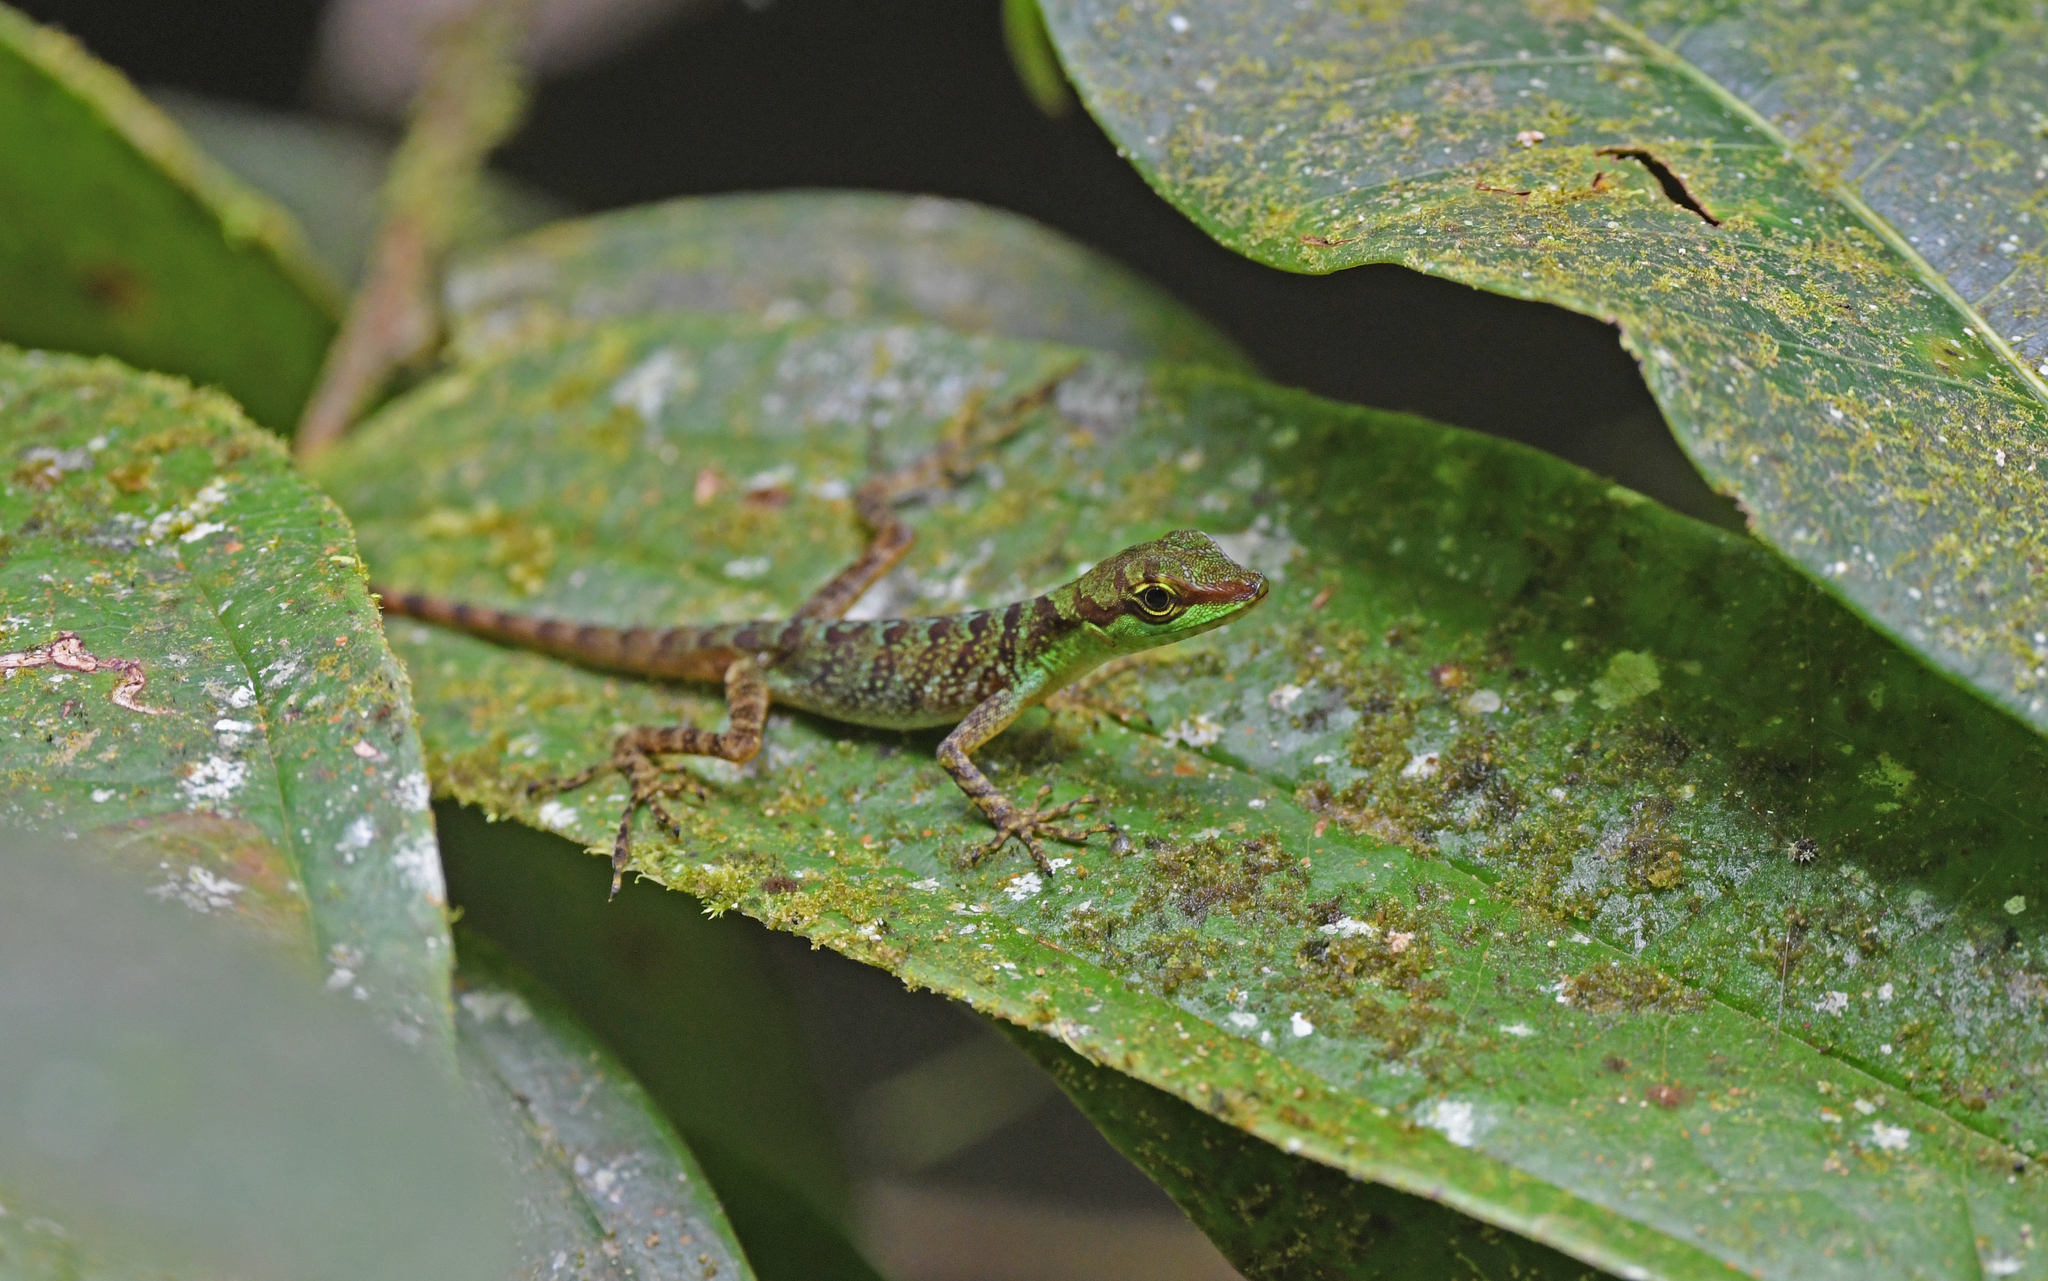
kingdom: Animalia
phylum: Chordata
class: Squamata
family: Dactyloidae
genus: Anolis
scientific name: Anolis ventrimaculatus
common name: Speckled anole
